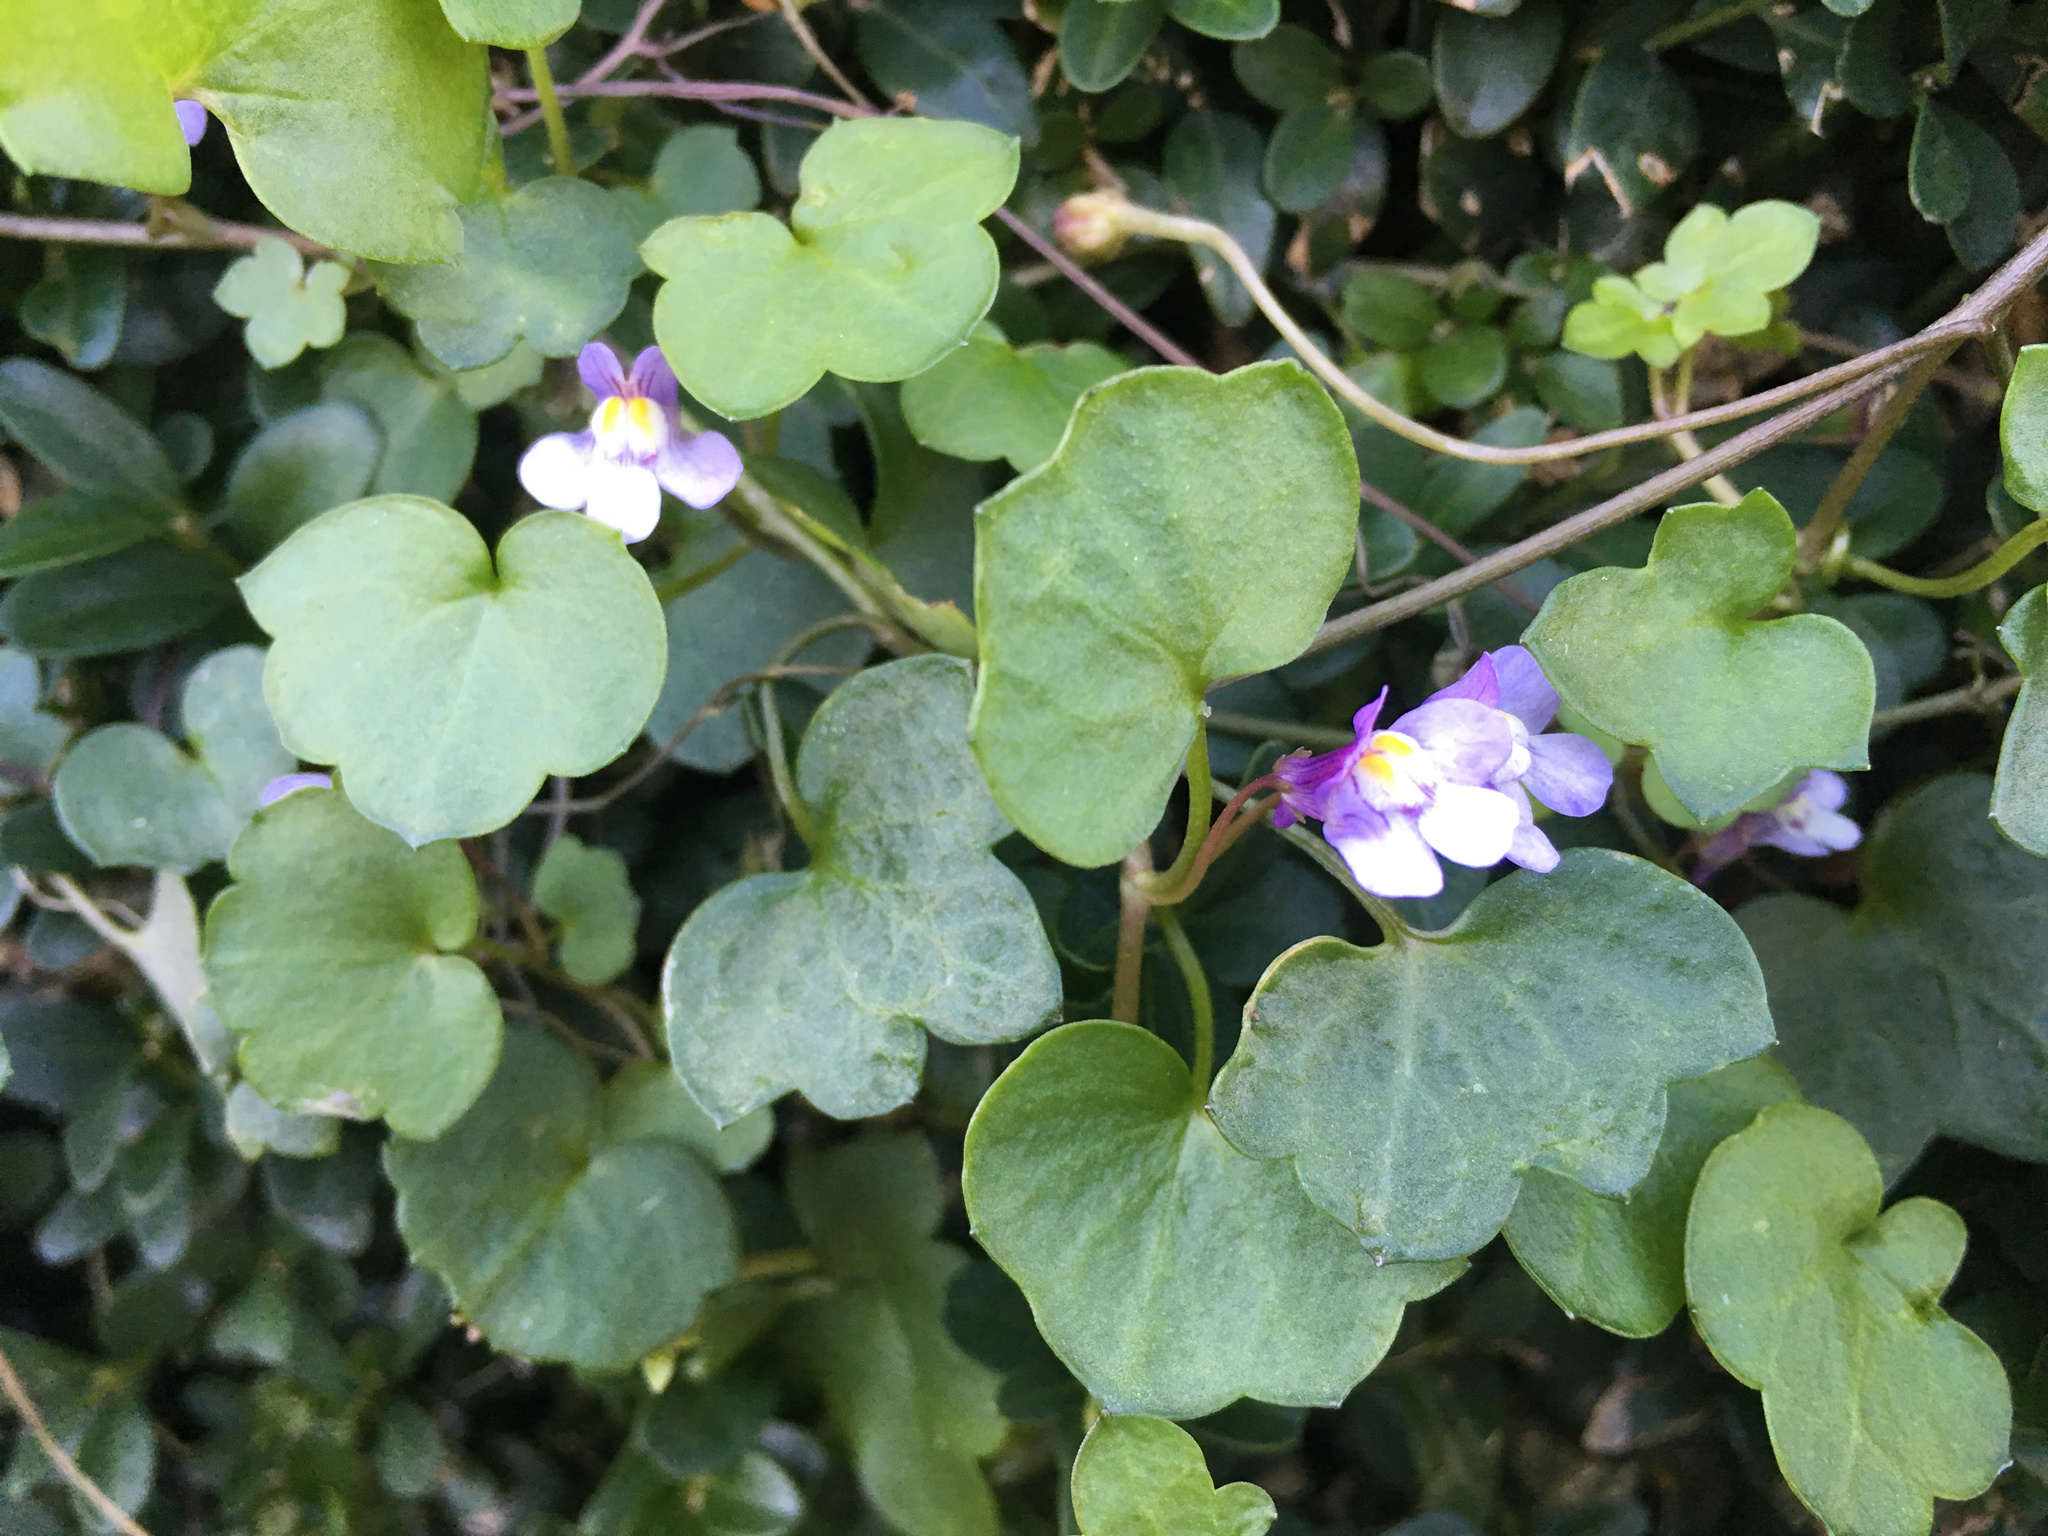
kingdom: Plantae
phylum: Tracheophyta
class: Magnoliopsida
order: Lamiales
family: Plantaginaceae
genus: Cymbalaria
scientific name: Cymbalaria muralis
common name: Ivy-leaved toadflax
